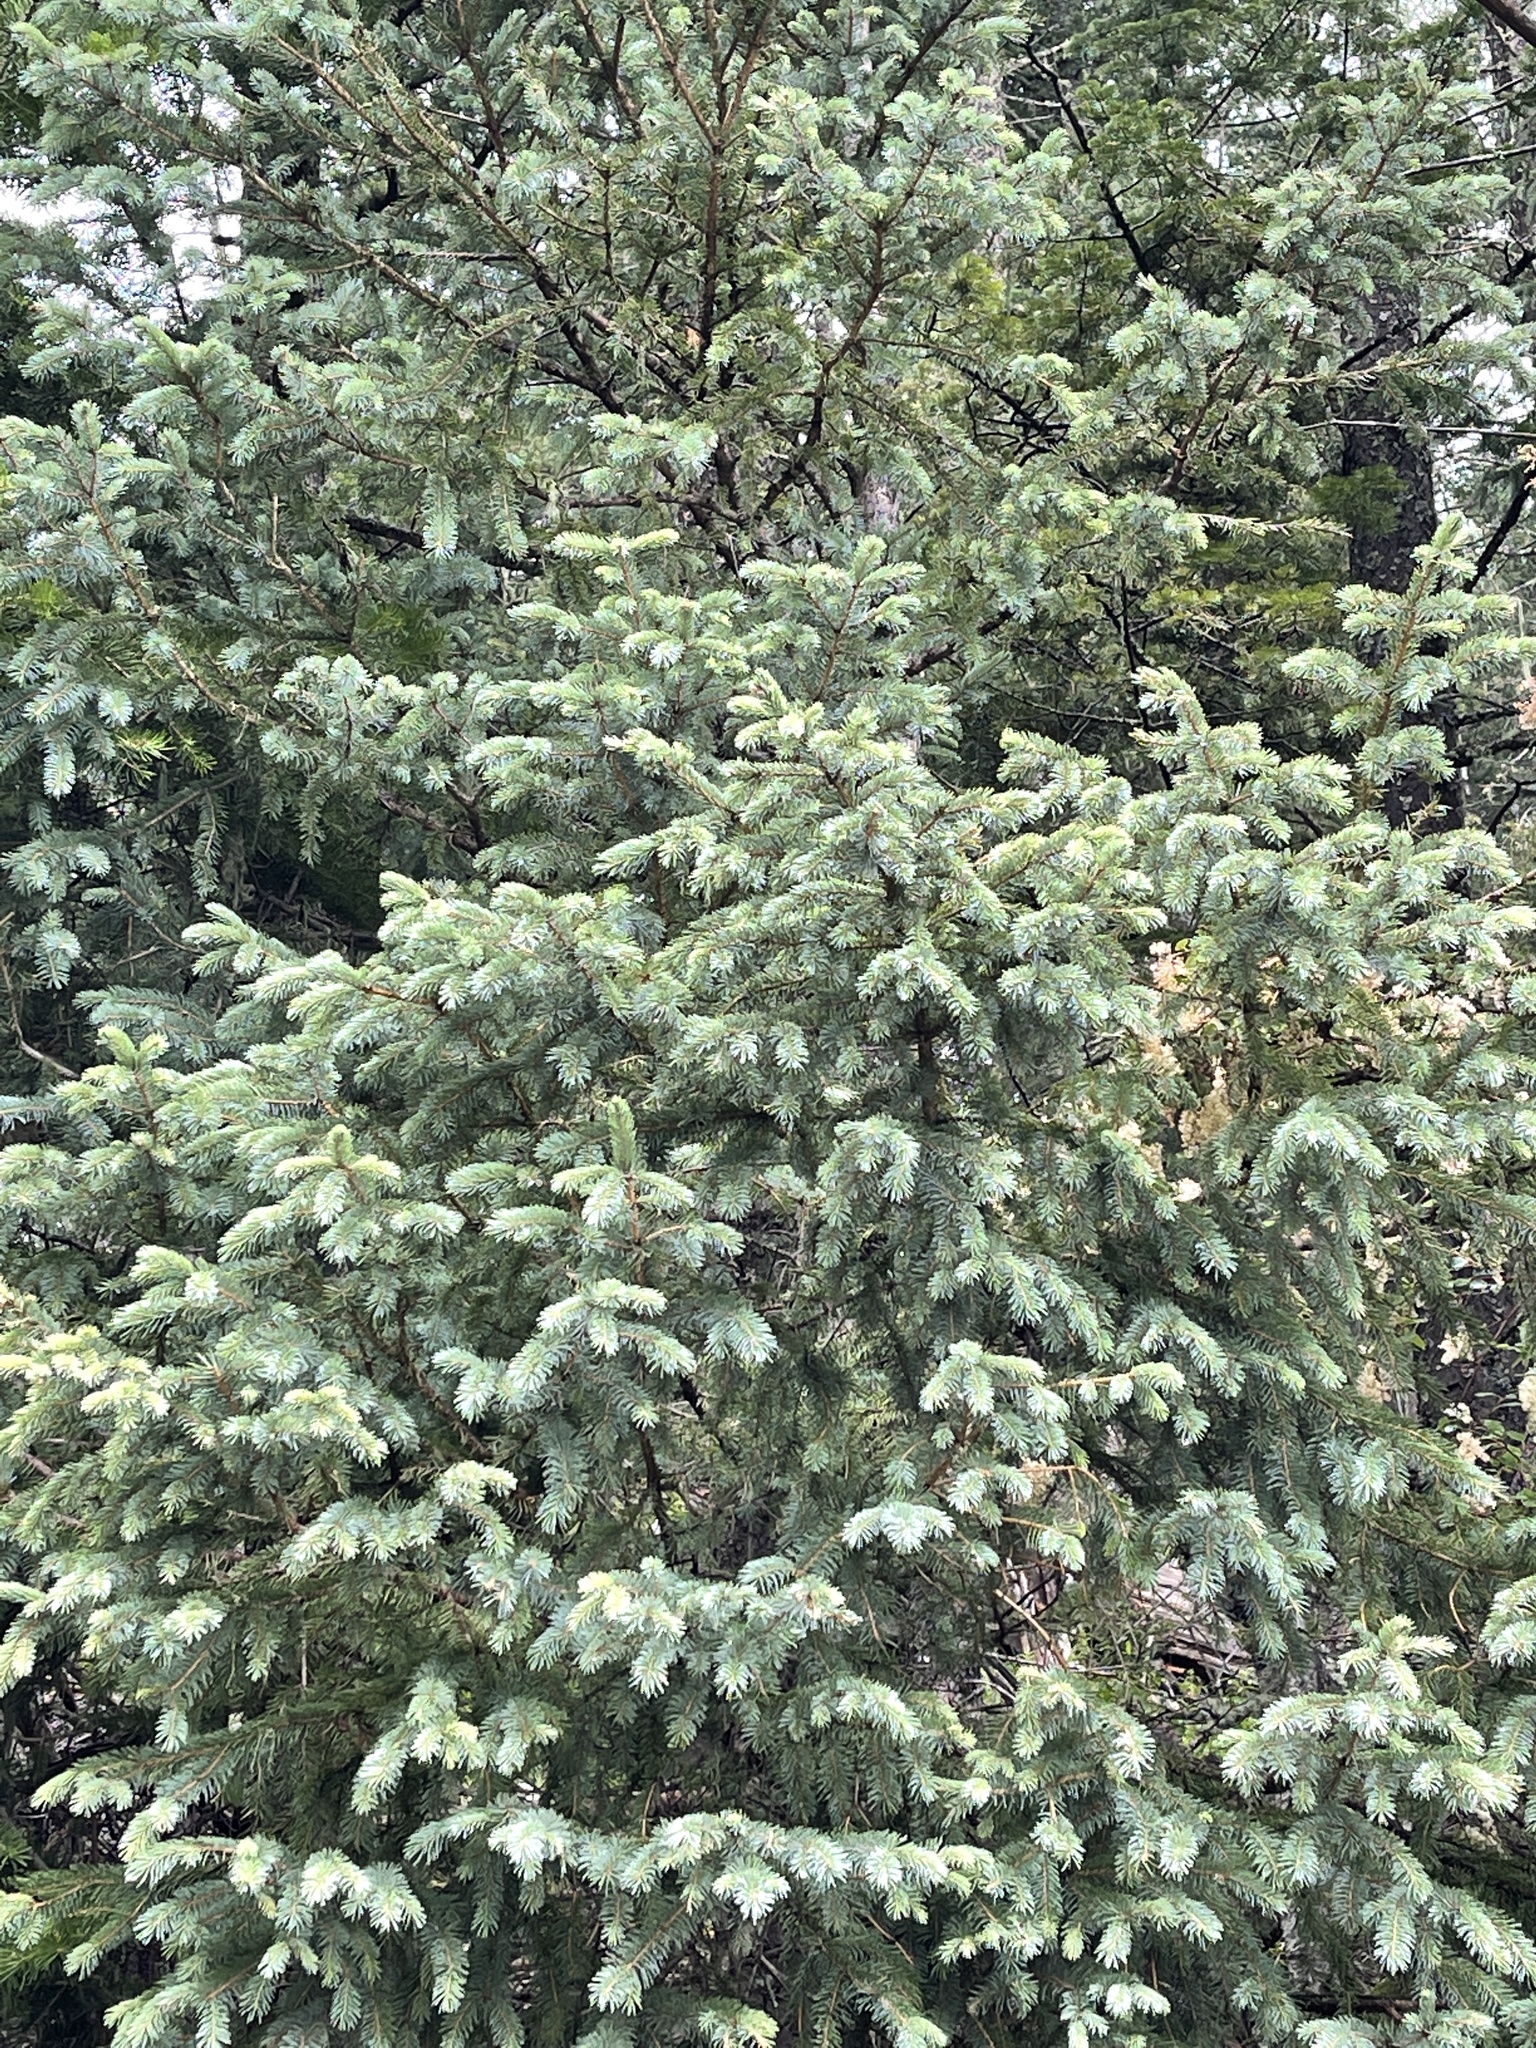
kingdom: Plantae
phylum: Tracheophyta
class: Pinopsida
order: Pinales
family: Pinaceae
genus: Picea
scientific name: Picea engelmannii
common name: Engelmann spruce
